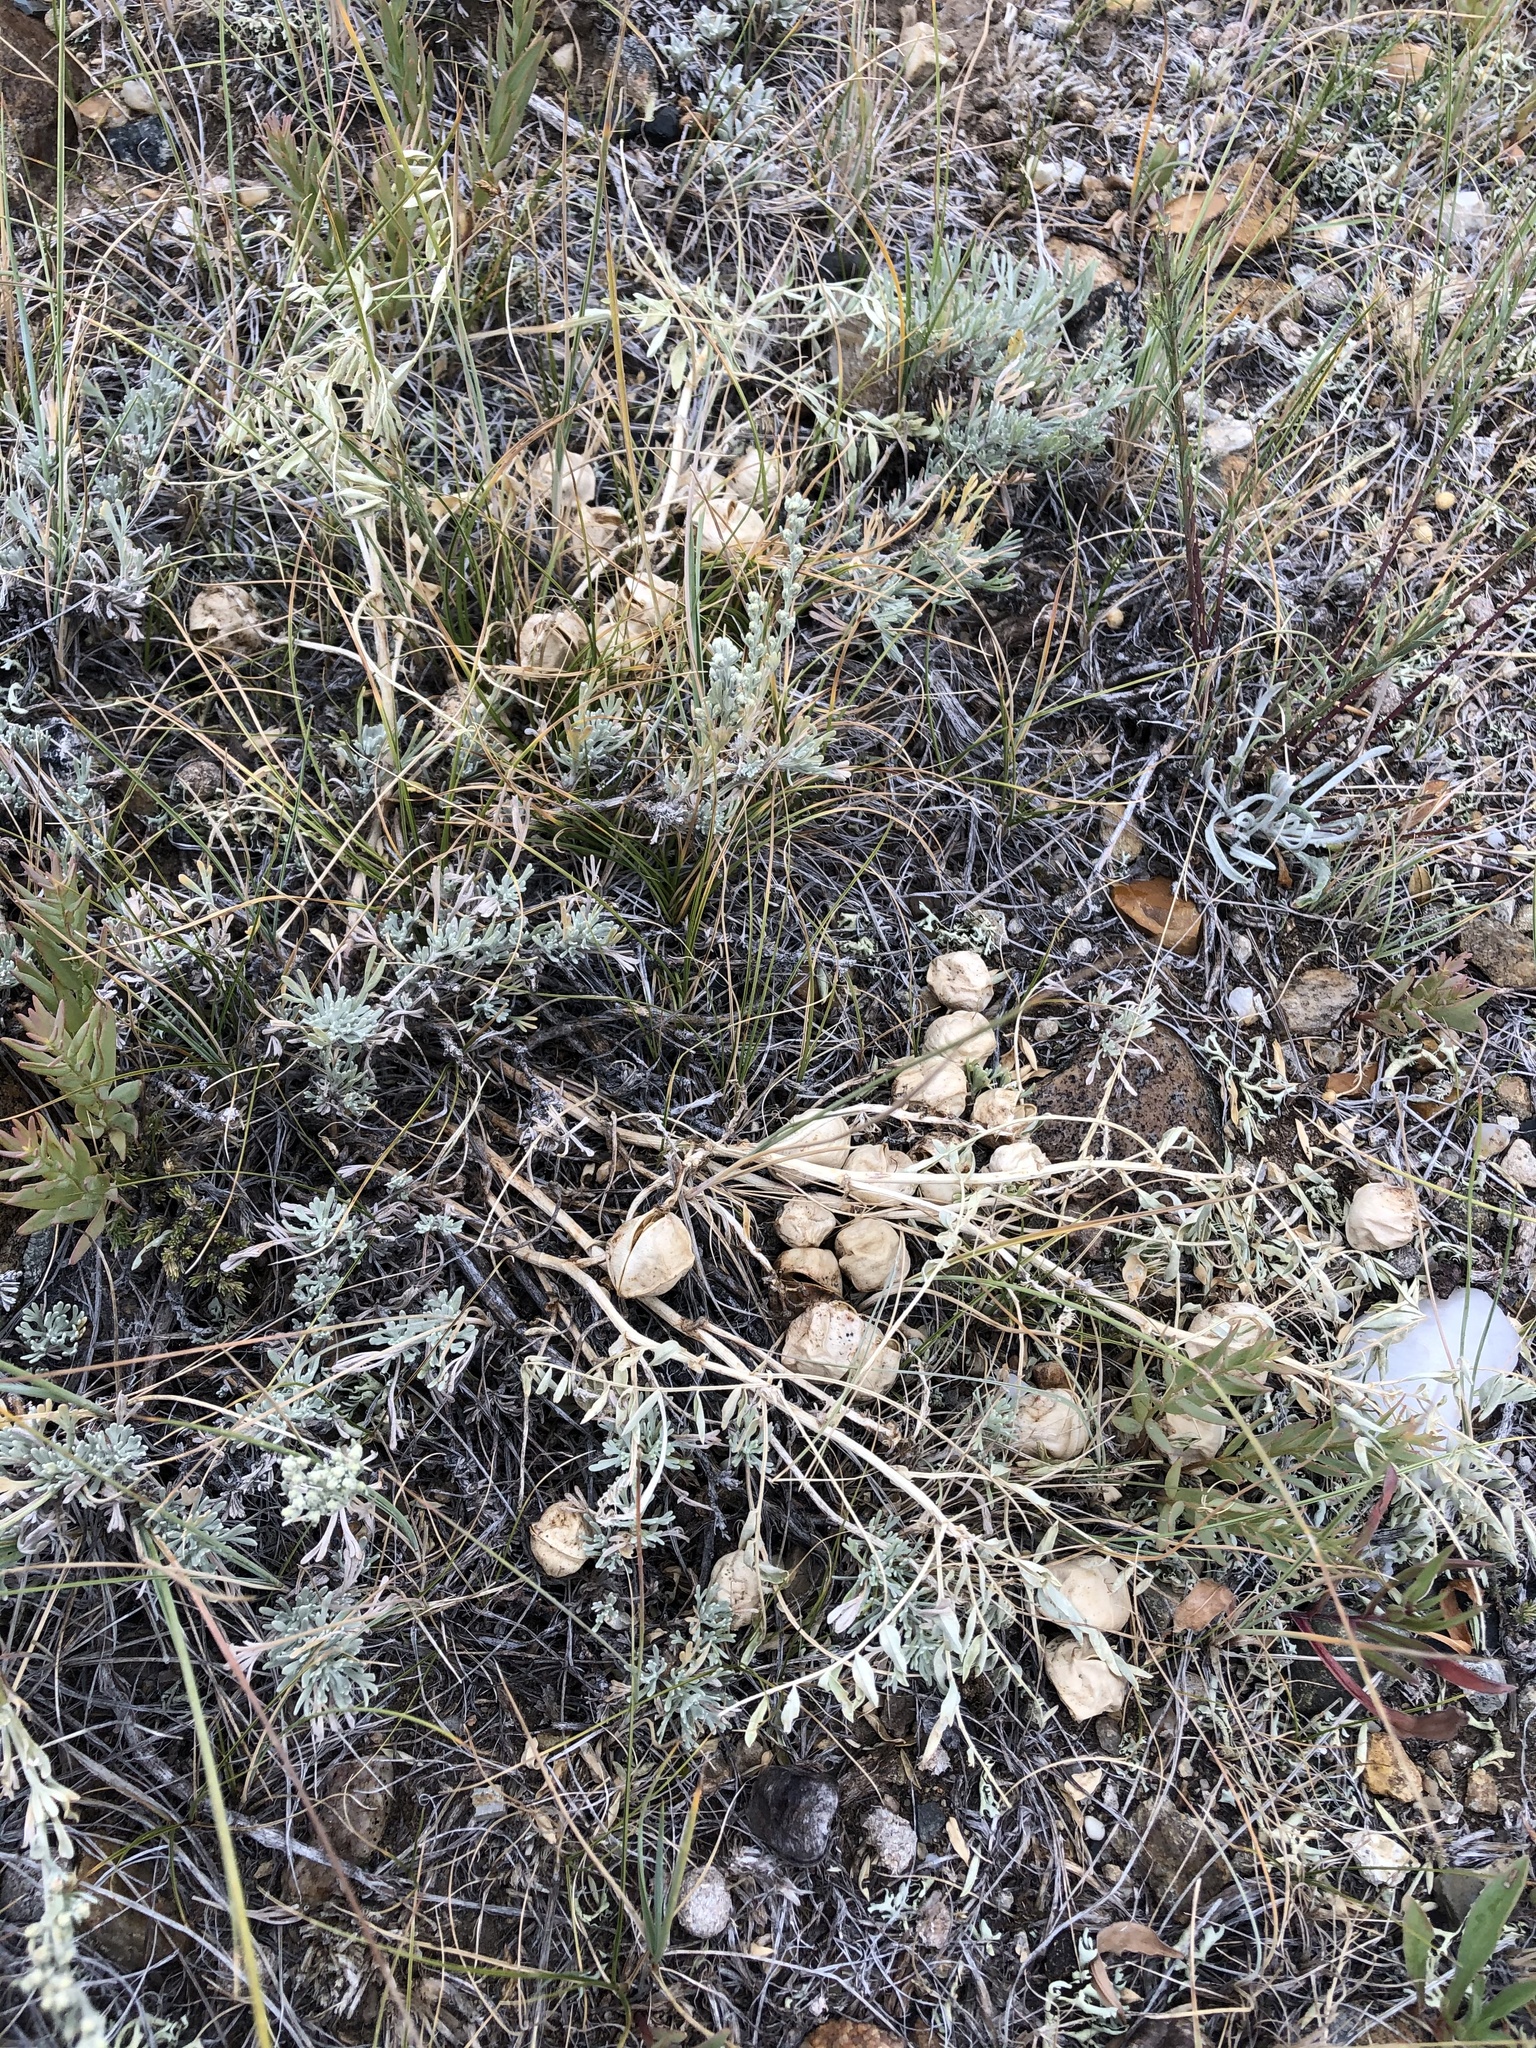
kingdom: Plantae
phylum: Tracheophyta
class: Magnoliopsida
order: Fabales
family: Fabaceae
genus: Astragalus
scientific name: Astragalus crassicarpus
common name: Ground-plum milk-vetch
